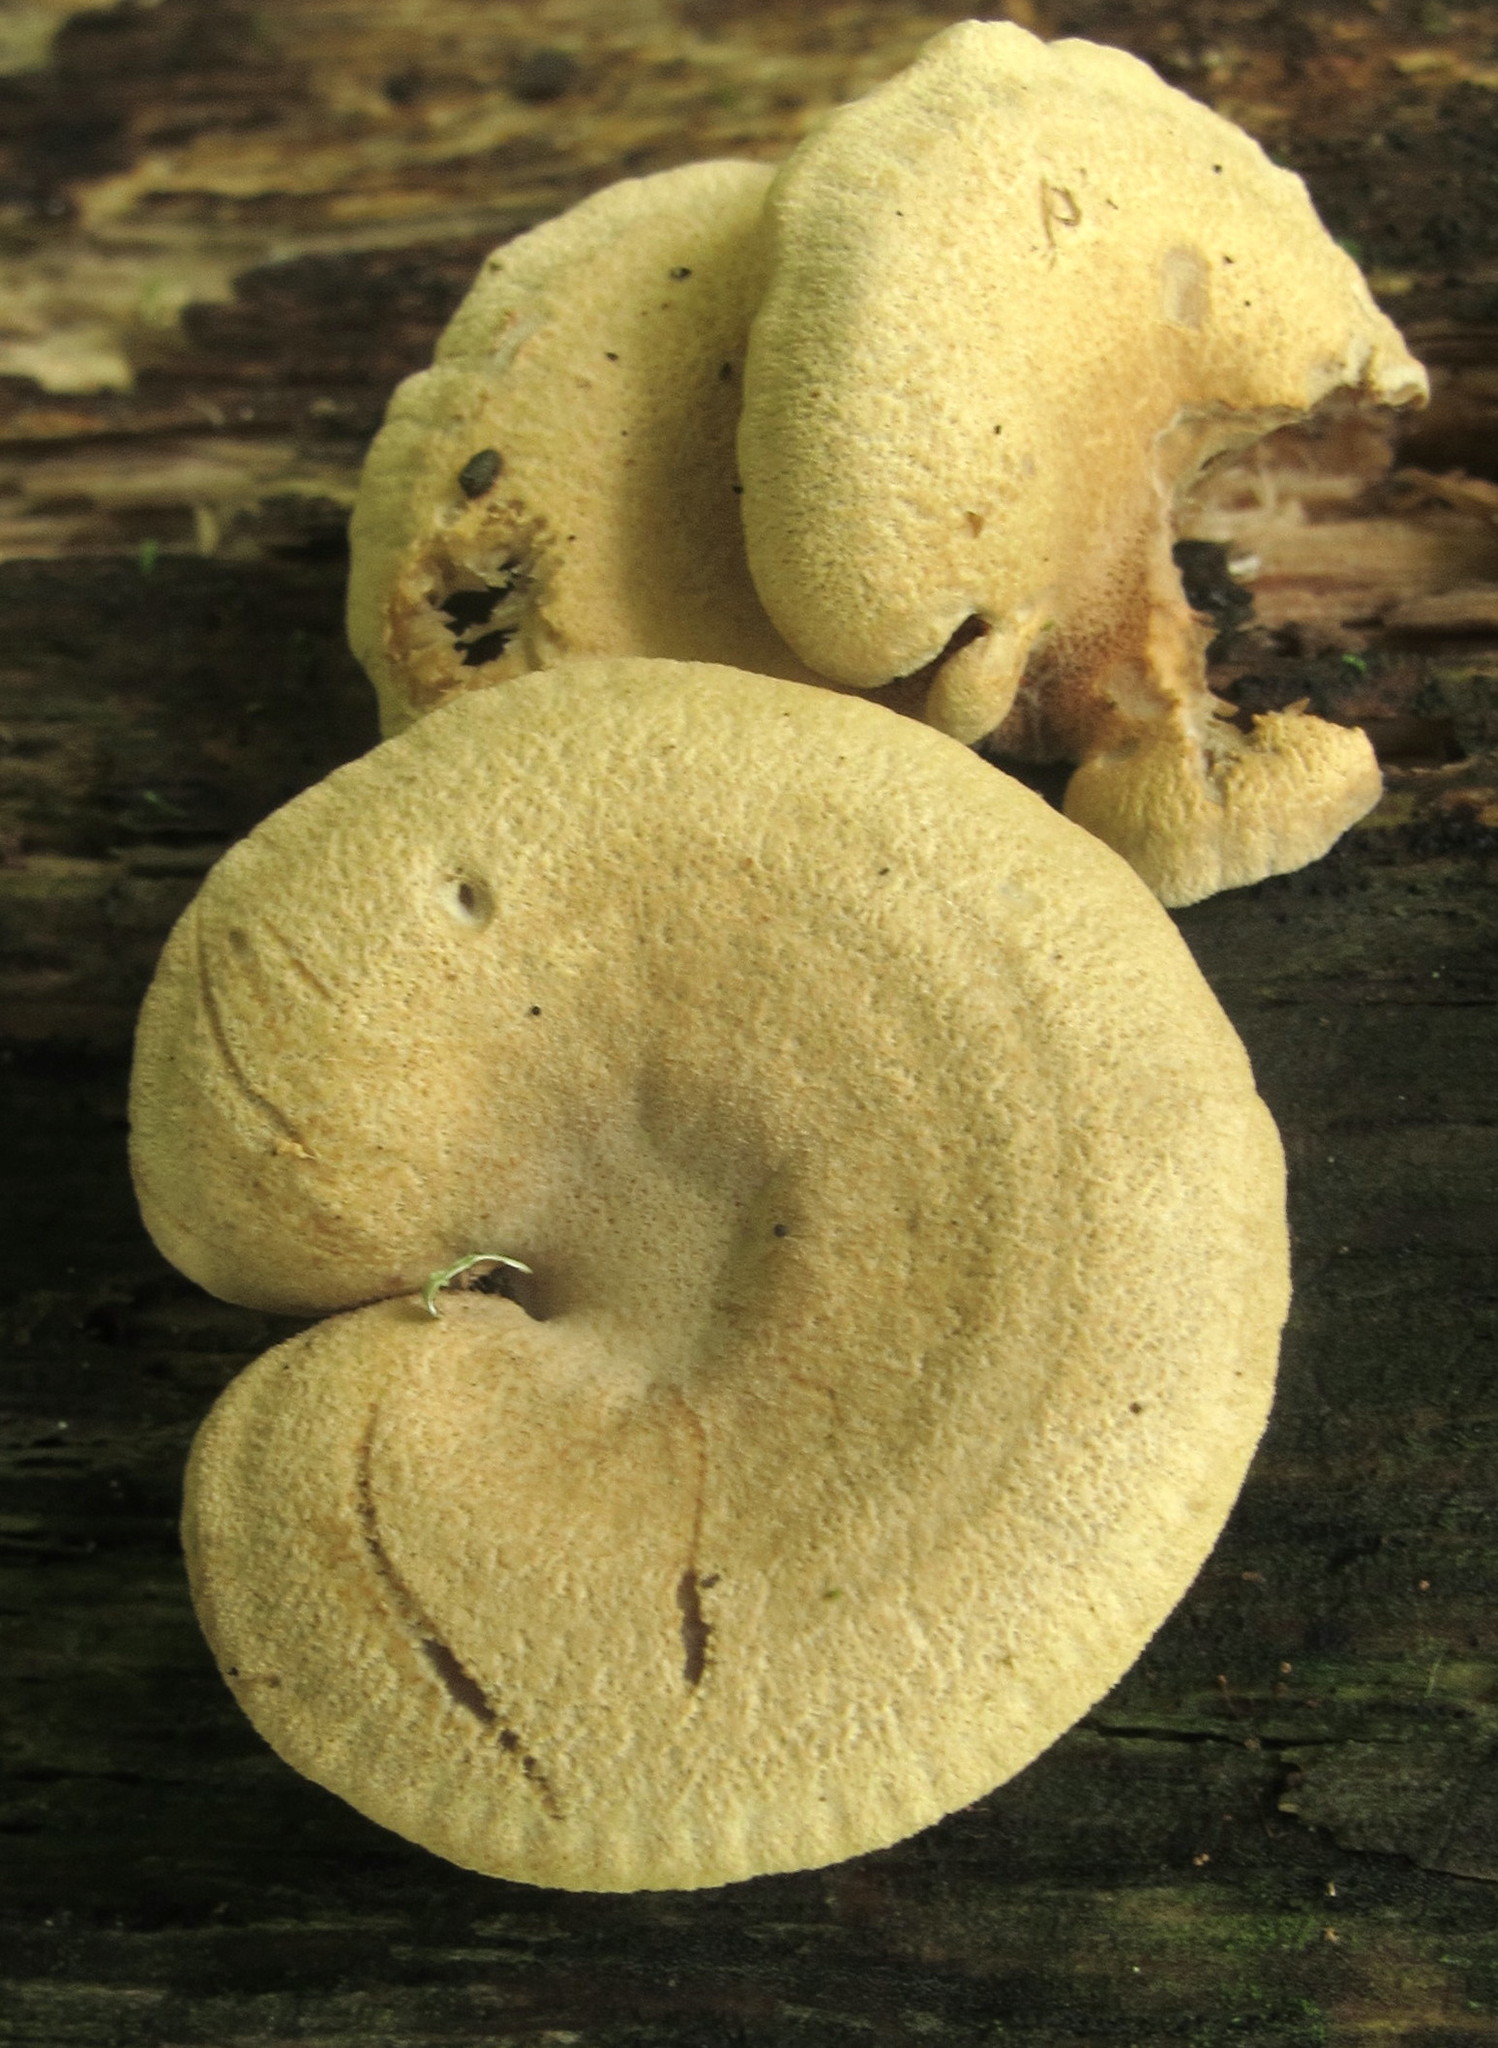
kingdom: Fungi
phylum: Basidiomycota
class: Agaricomycetes
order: Agaricales
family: Mycenaceae
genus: Panellus
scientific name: Panellus stipticus
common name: Bitter oysterling
